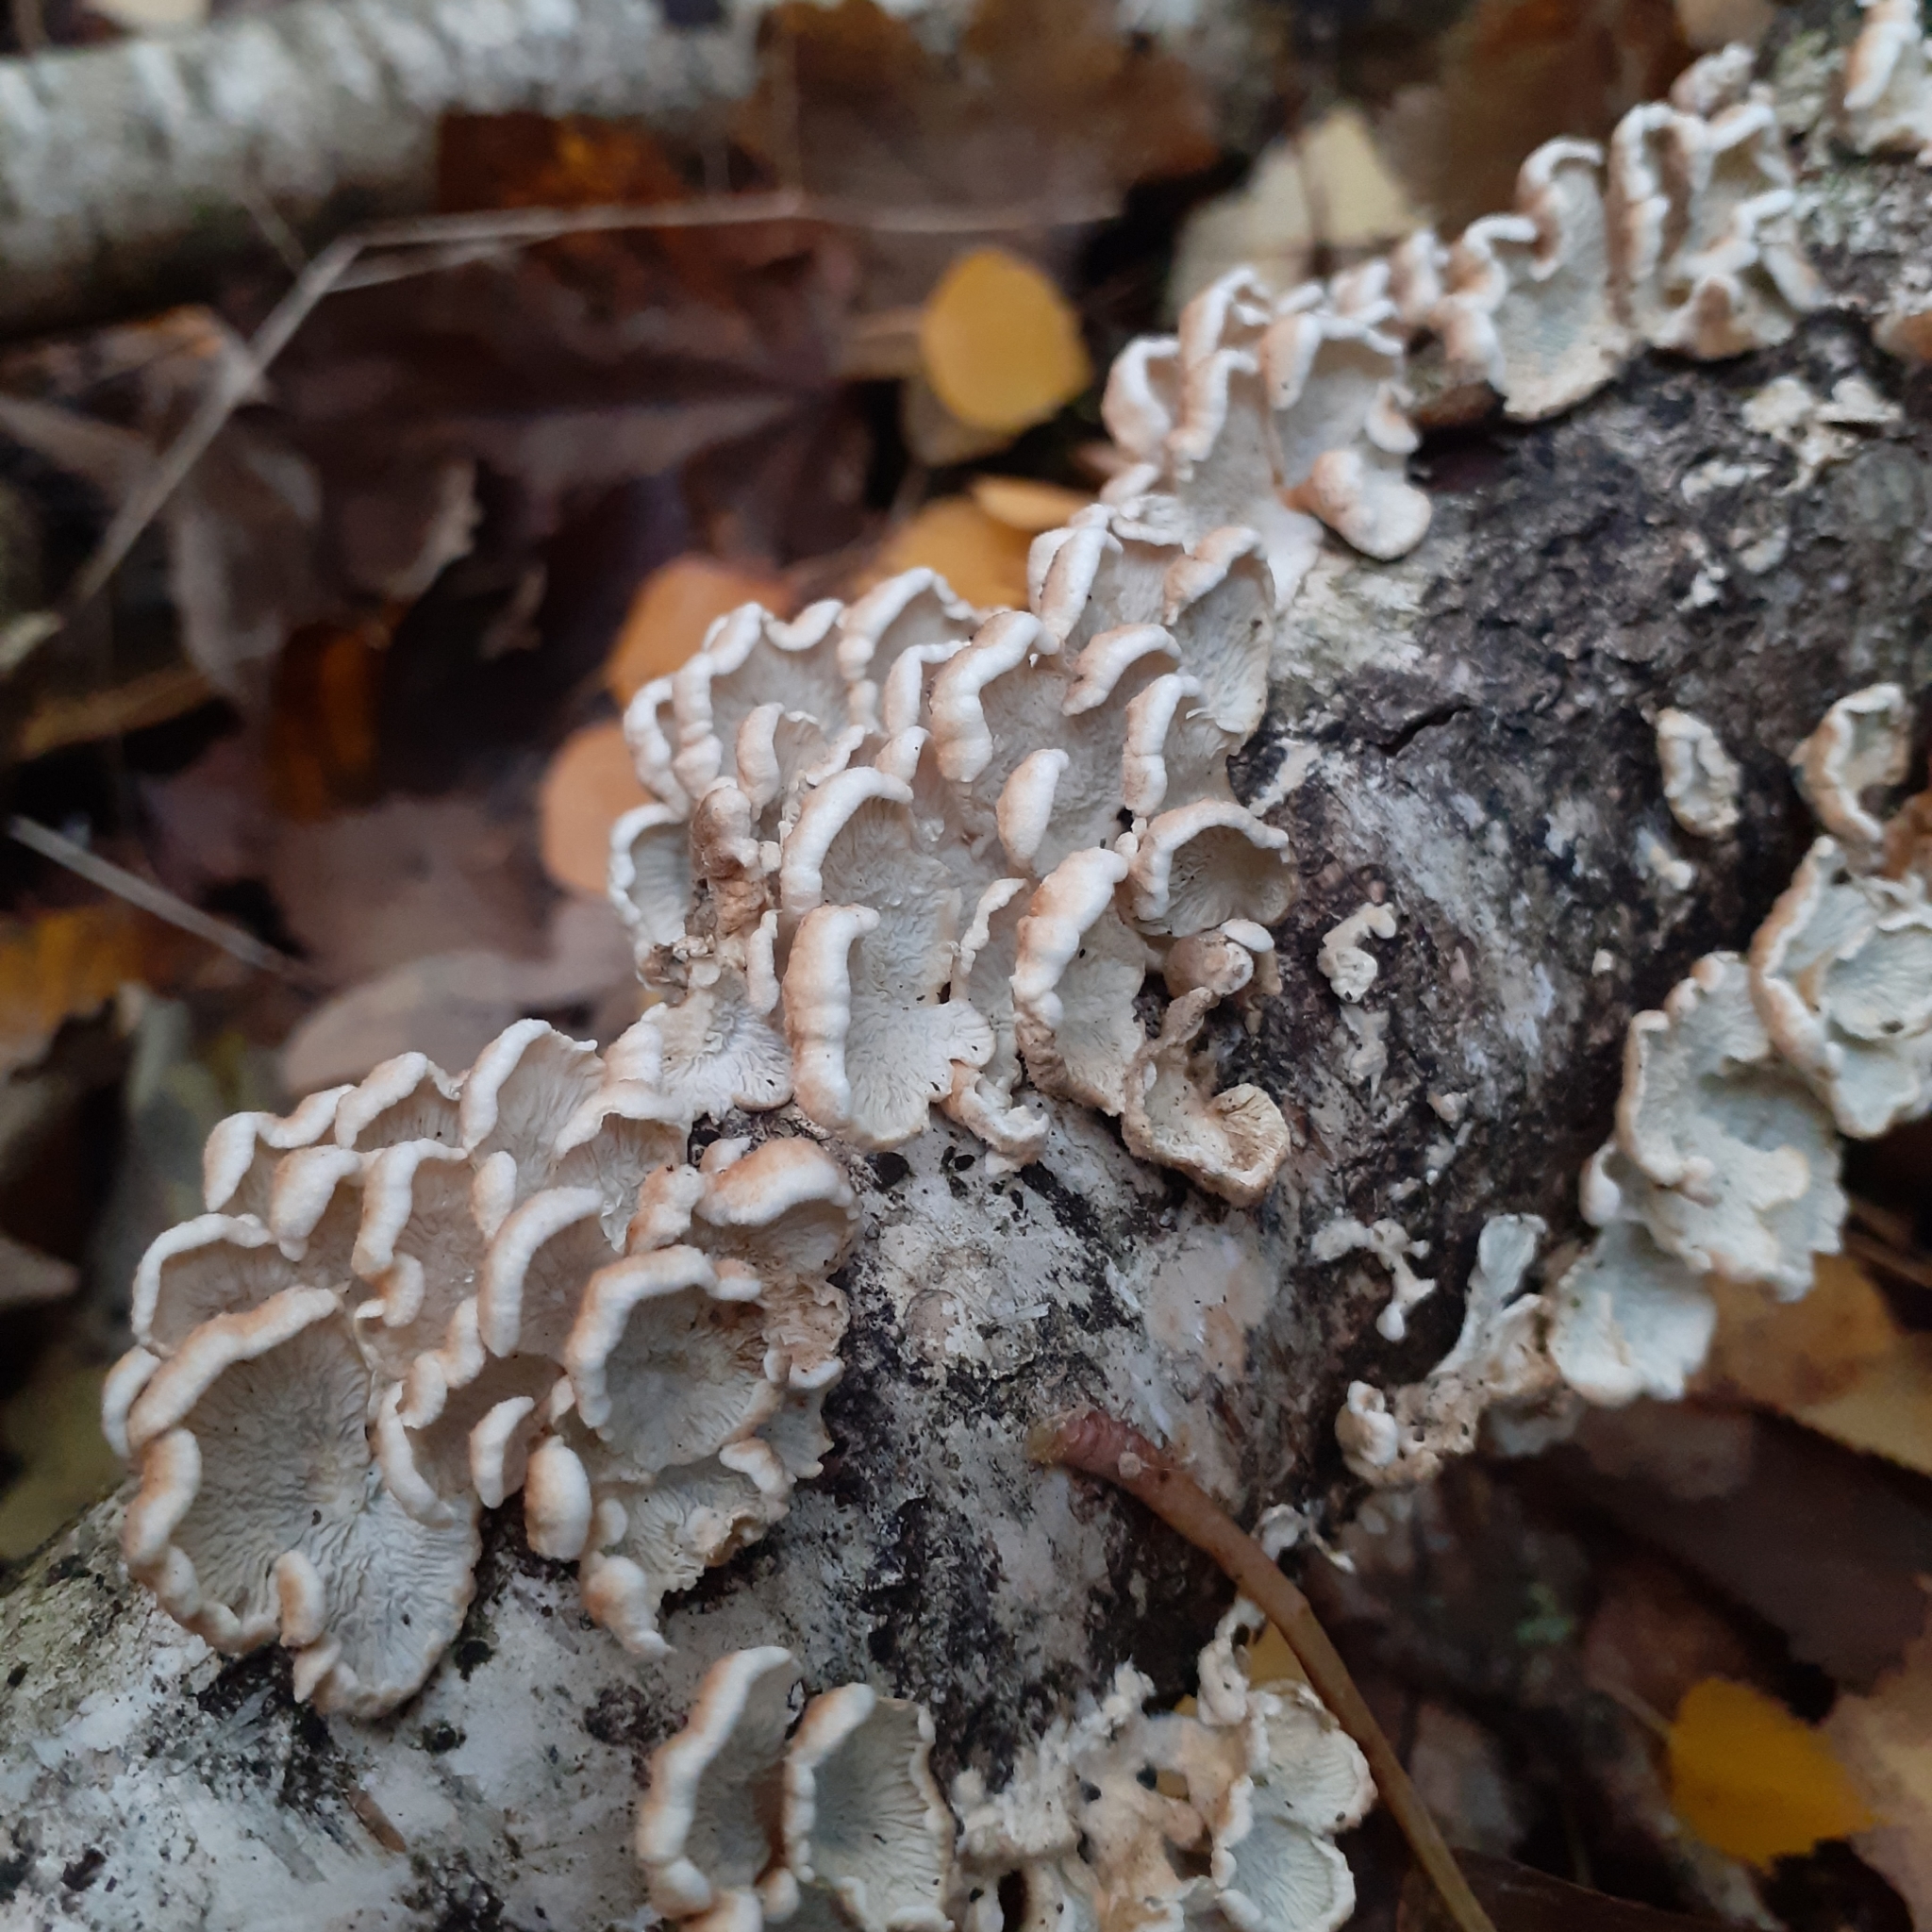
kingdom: Fungi
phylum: Basidiomycota
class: Agaricomycetes
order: Amylocorticiales
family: Amylocorticiaceae
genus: Plicaturopsis
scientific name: Plicaturopsis crispa
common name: Crimped gill
